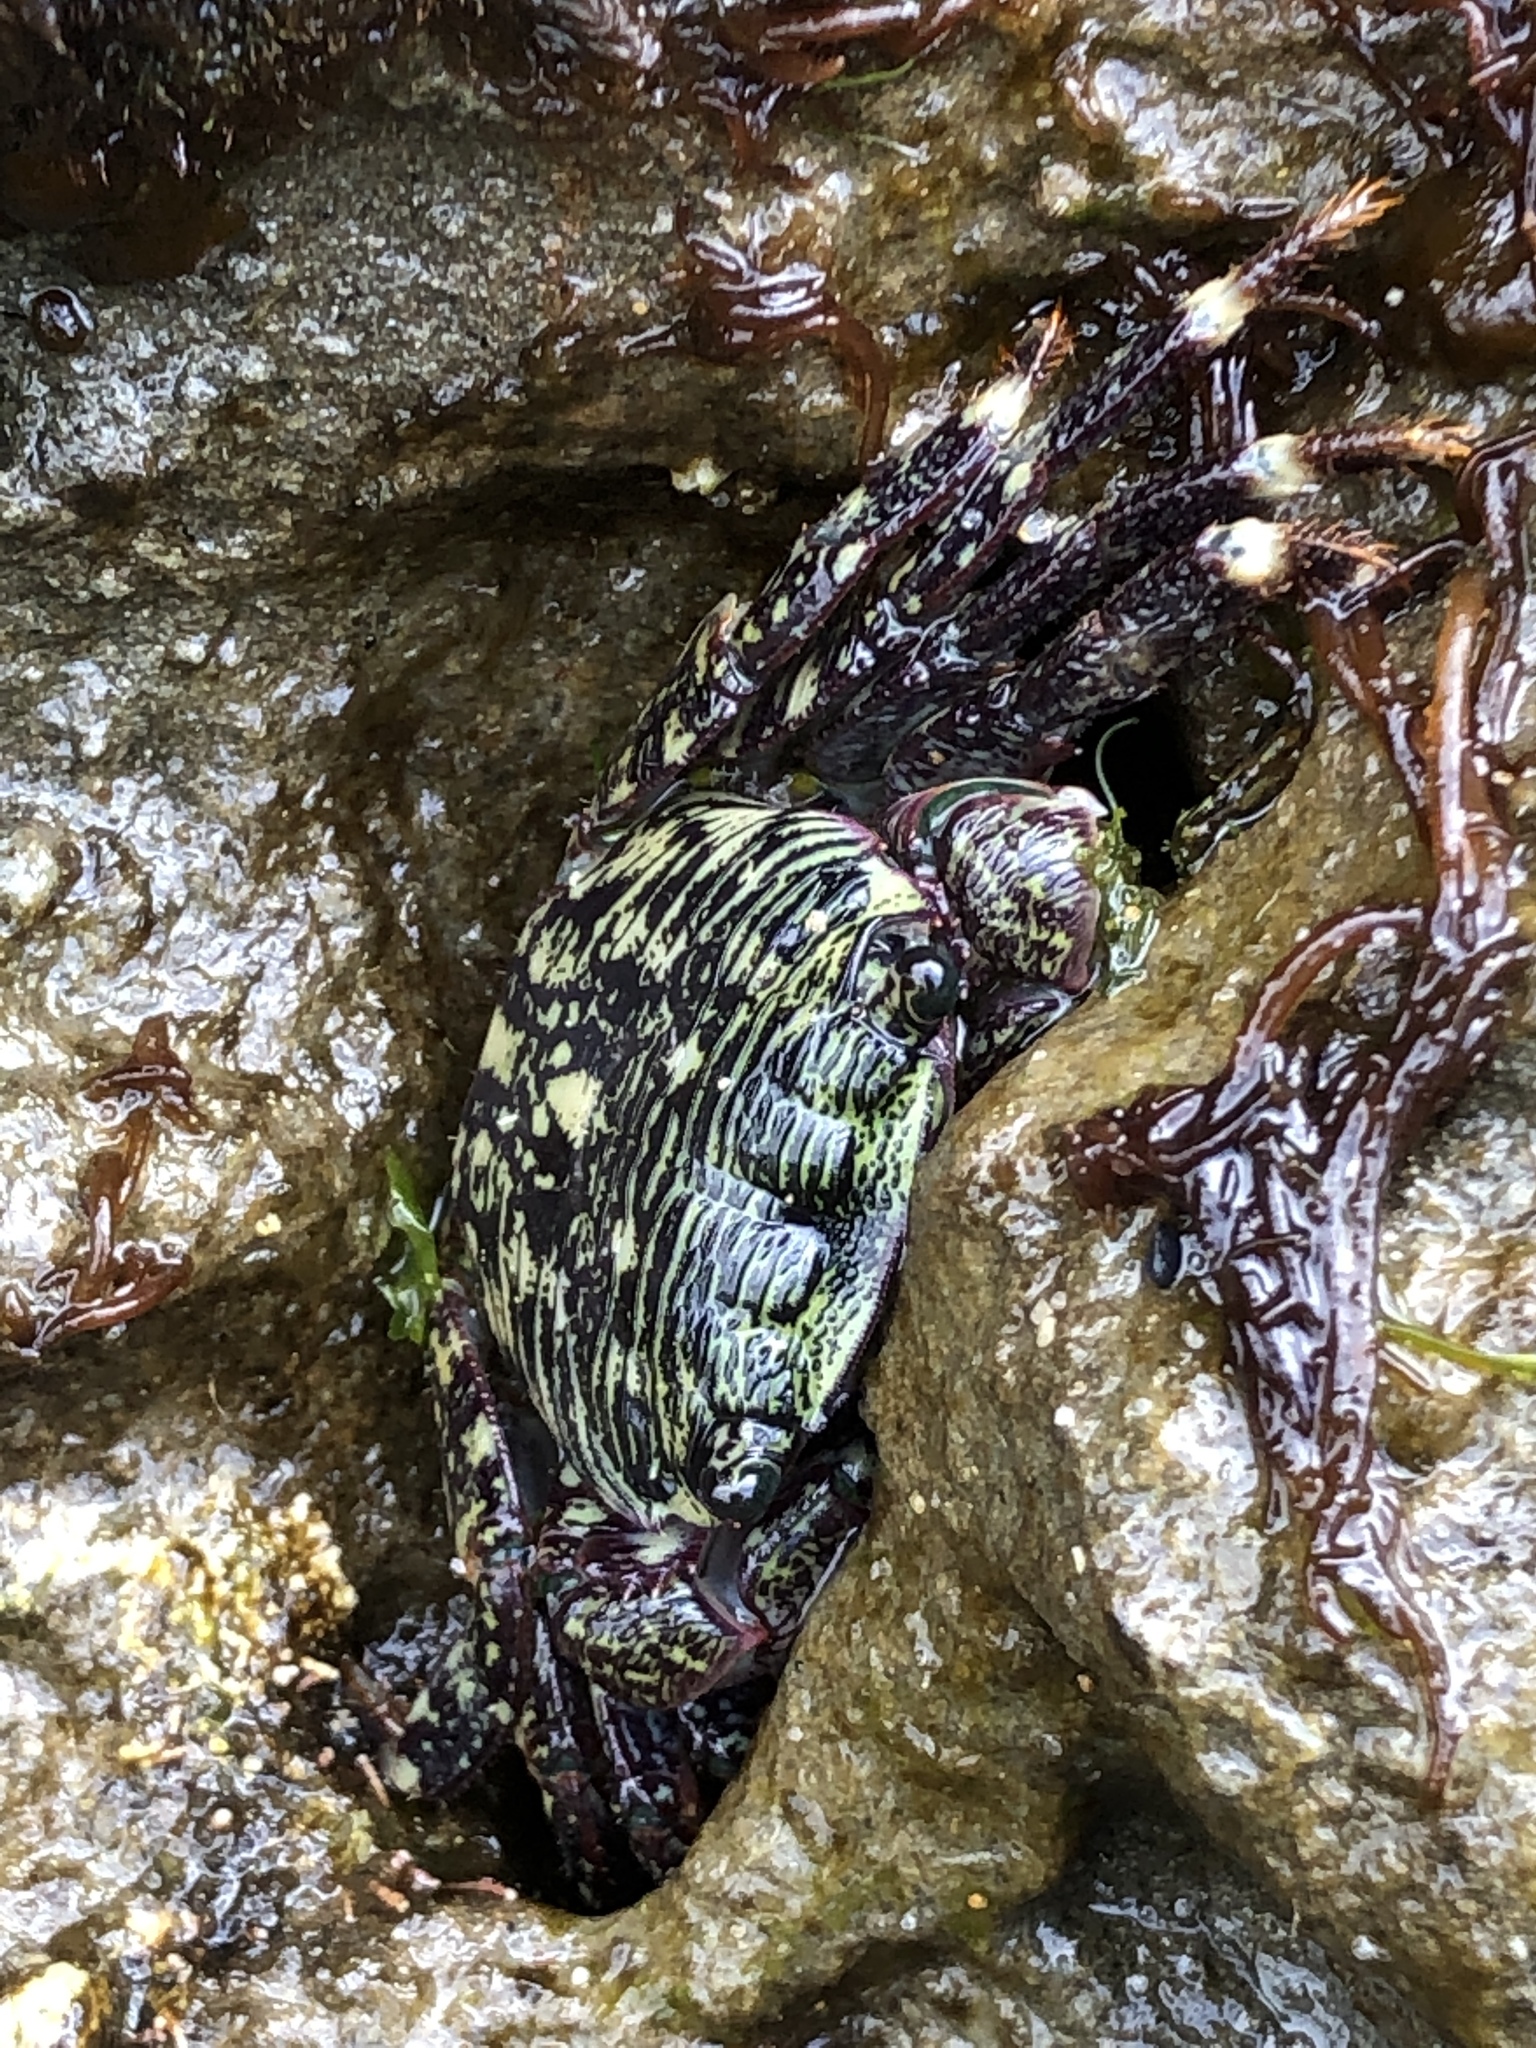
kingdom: Animalia
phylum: Arthropoda
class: Malacostraca
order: Decapoda
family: Grapsidae
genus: Pachygrapsus
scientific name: Pachygrapsus crassipes
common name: Striped shore crab
